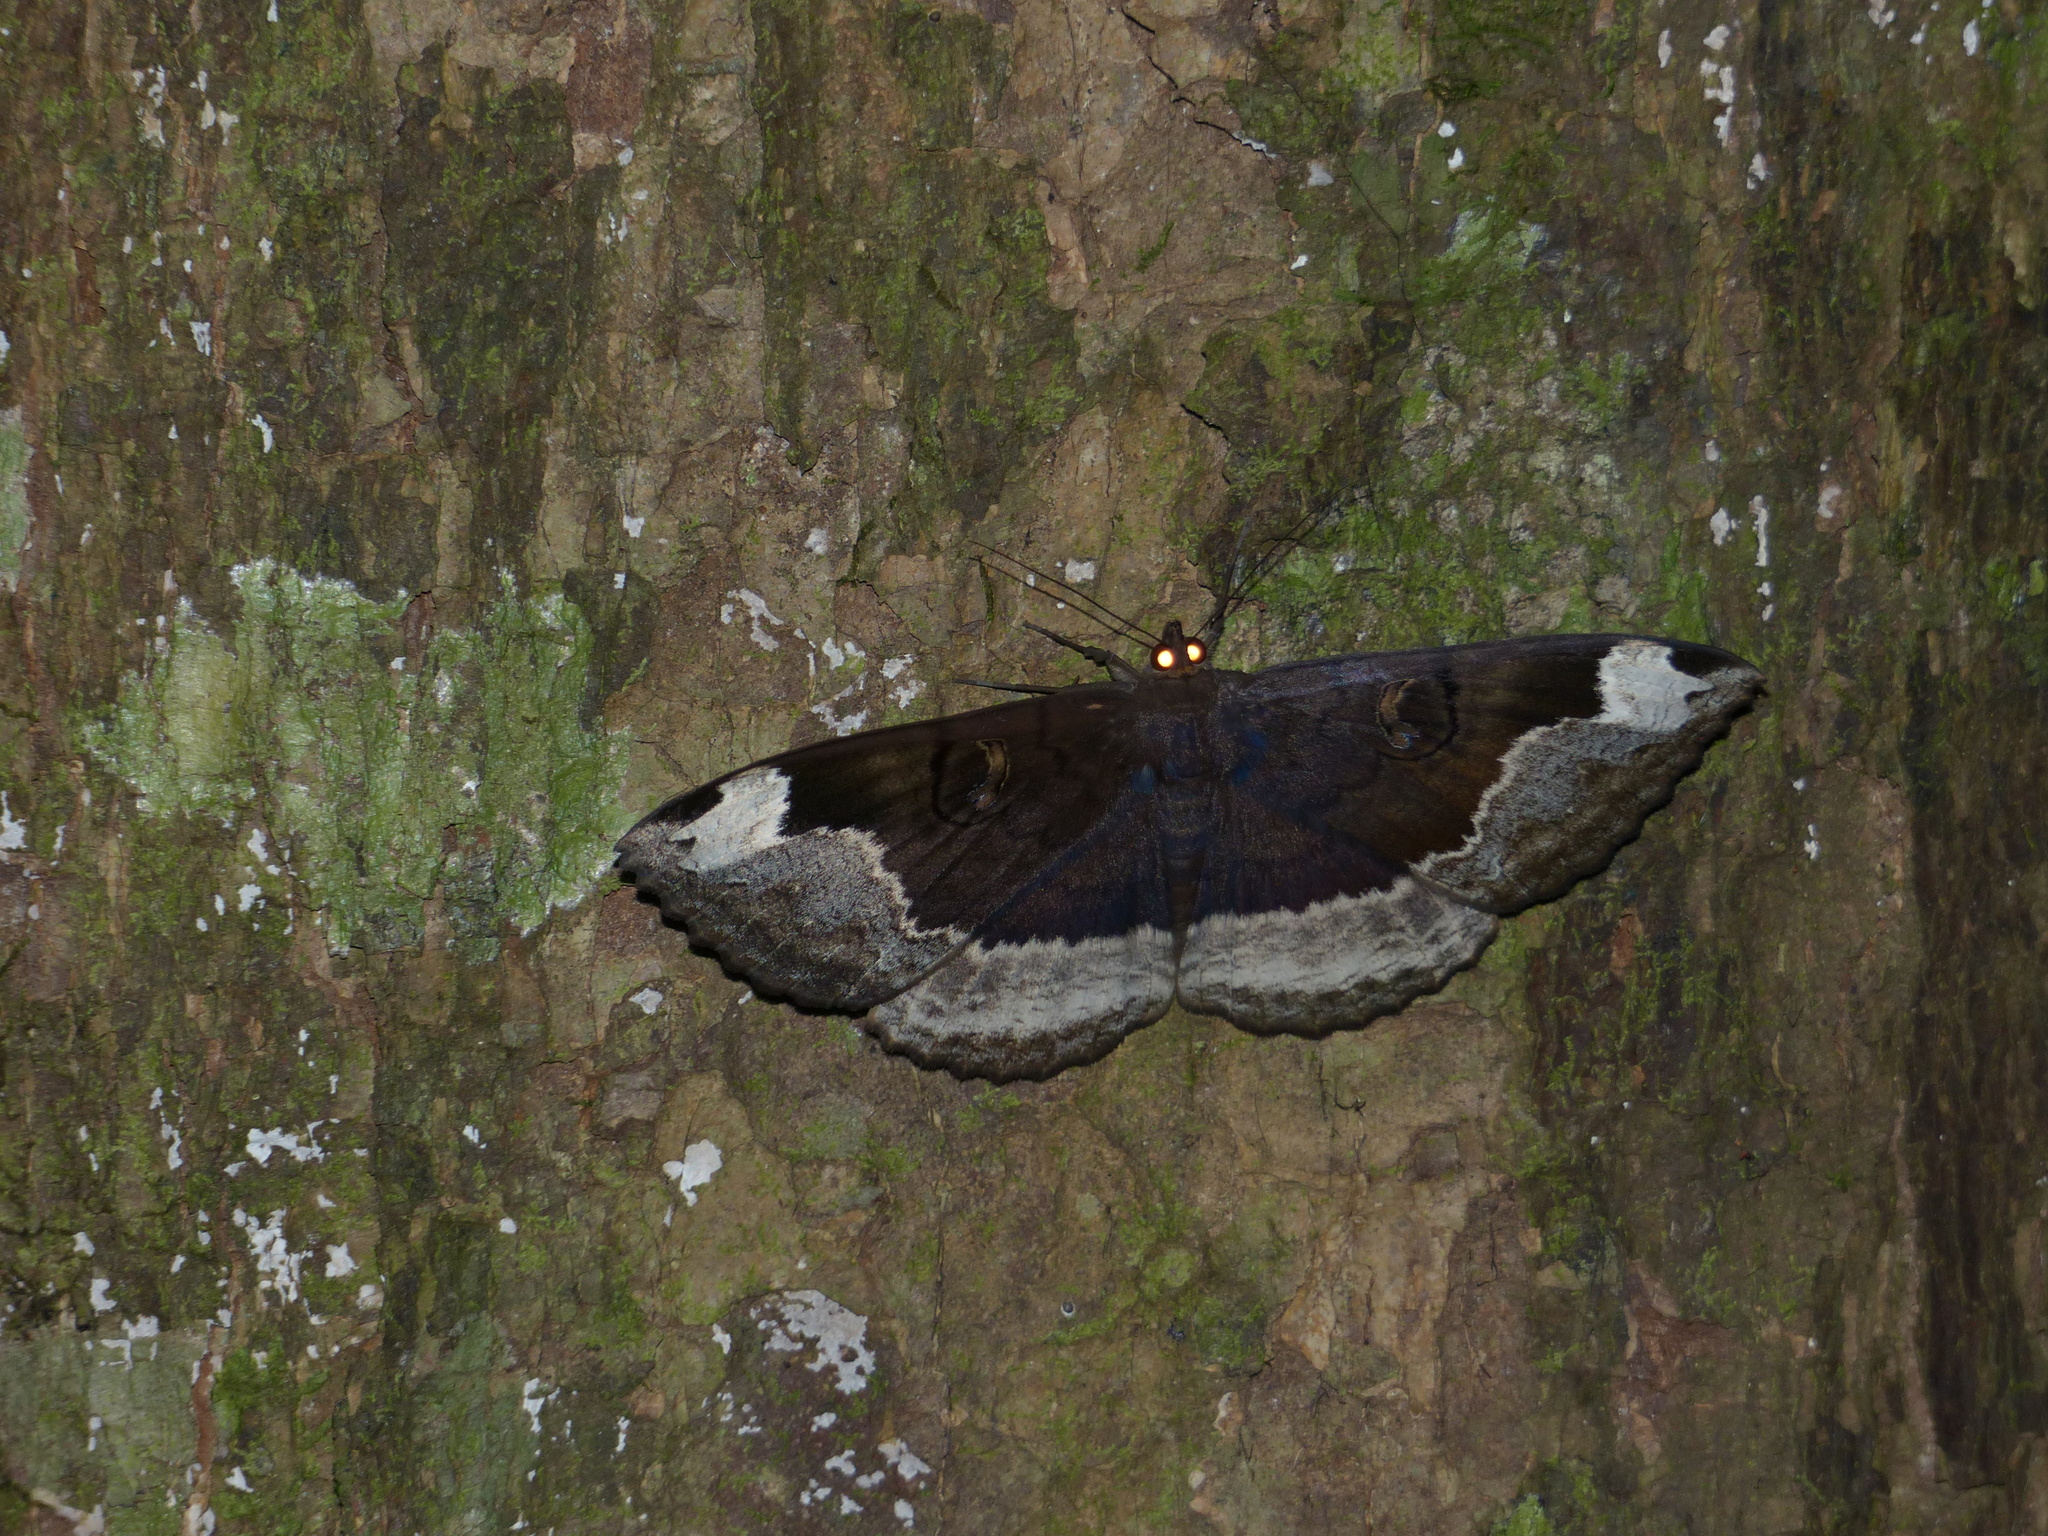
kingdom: Animalia
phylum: Arthropoda
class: Insecta
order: Lepidoptera
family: Erebidae
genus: Erebus
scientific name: Erebus caprimulgus
